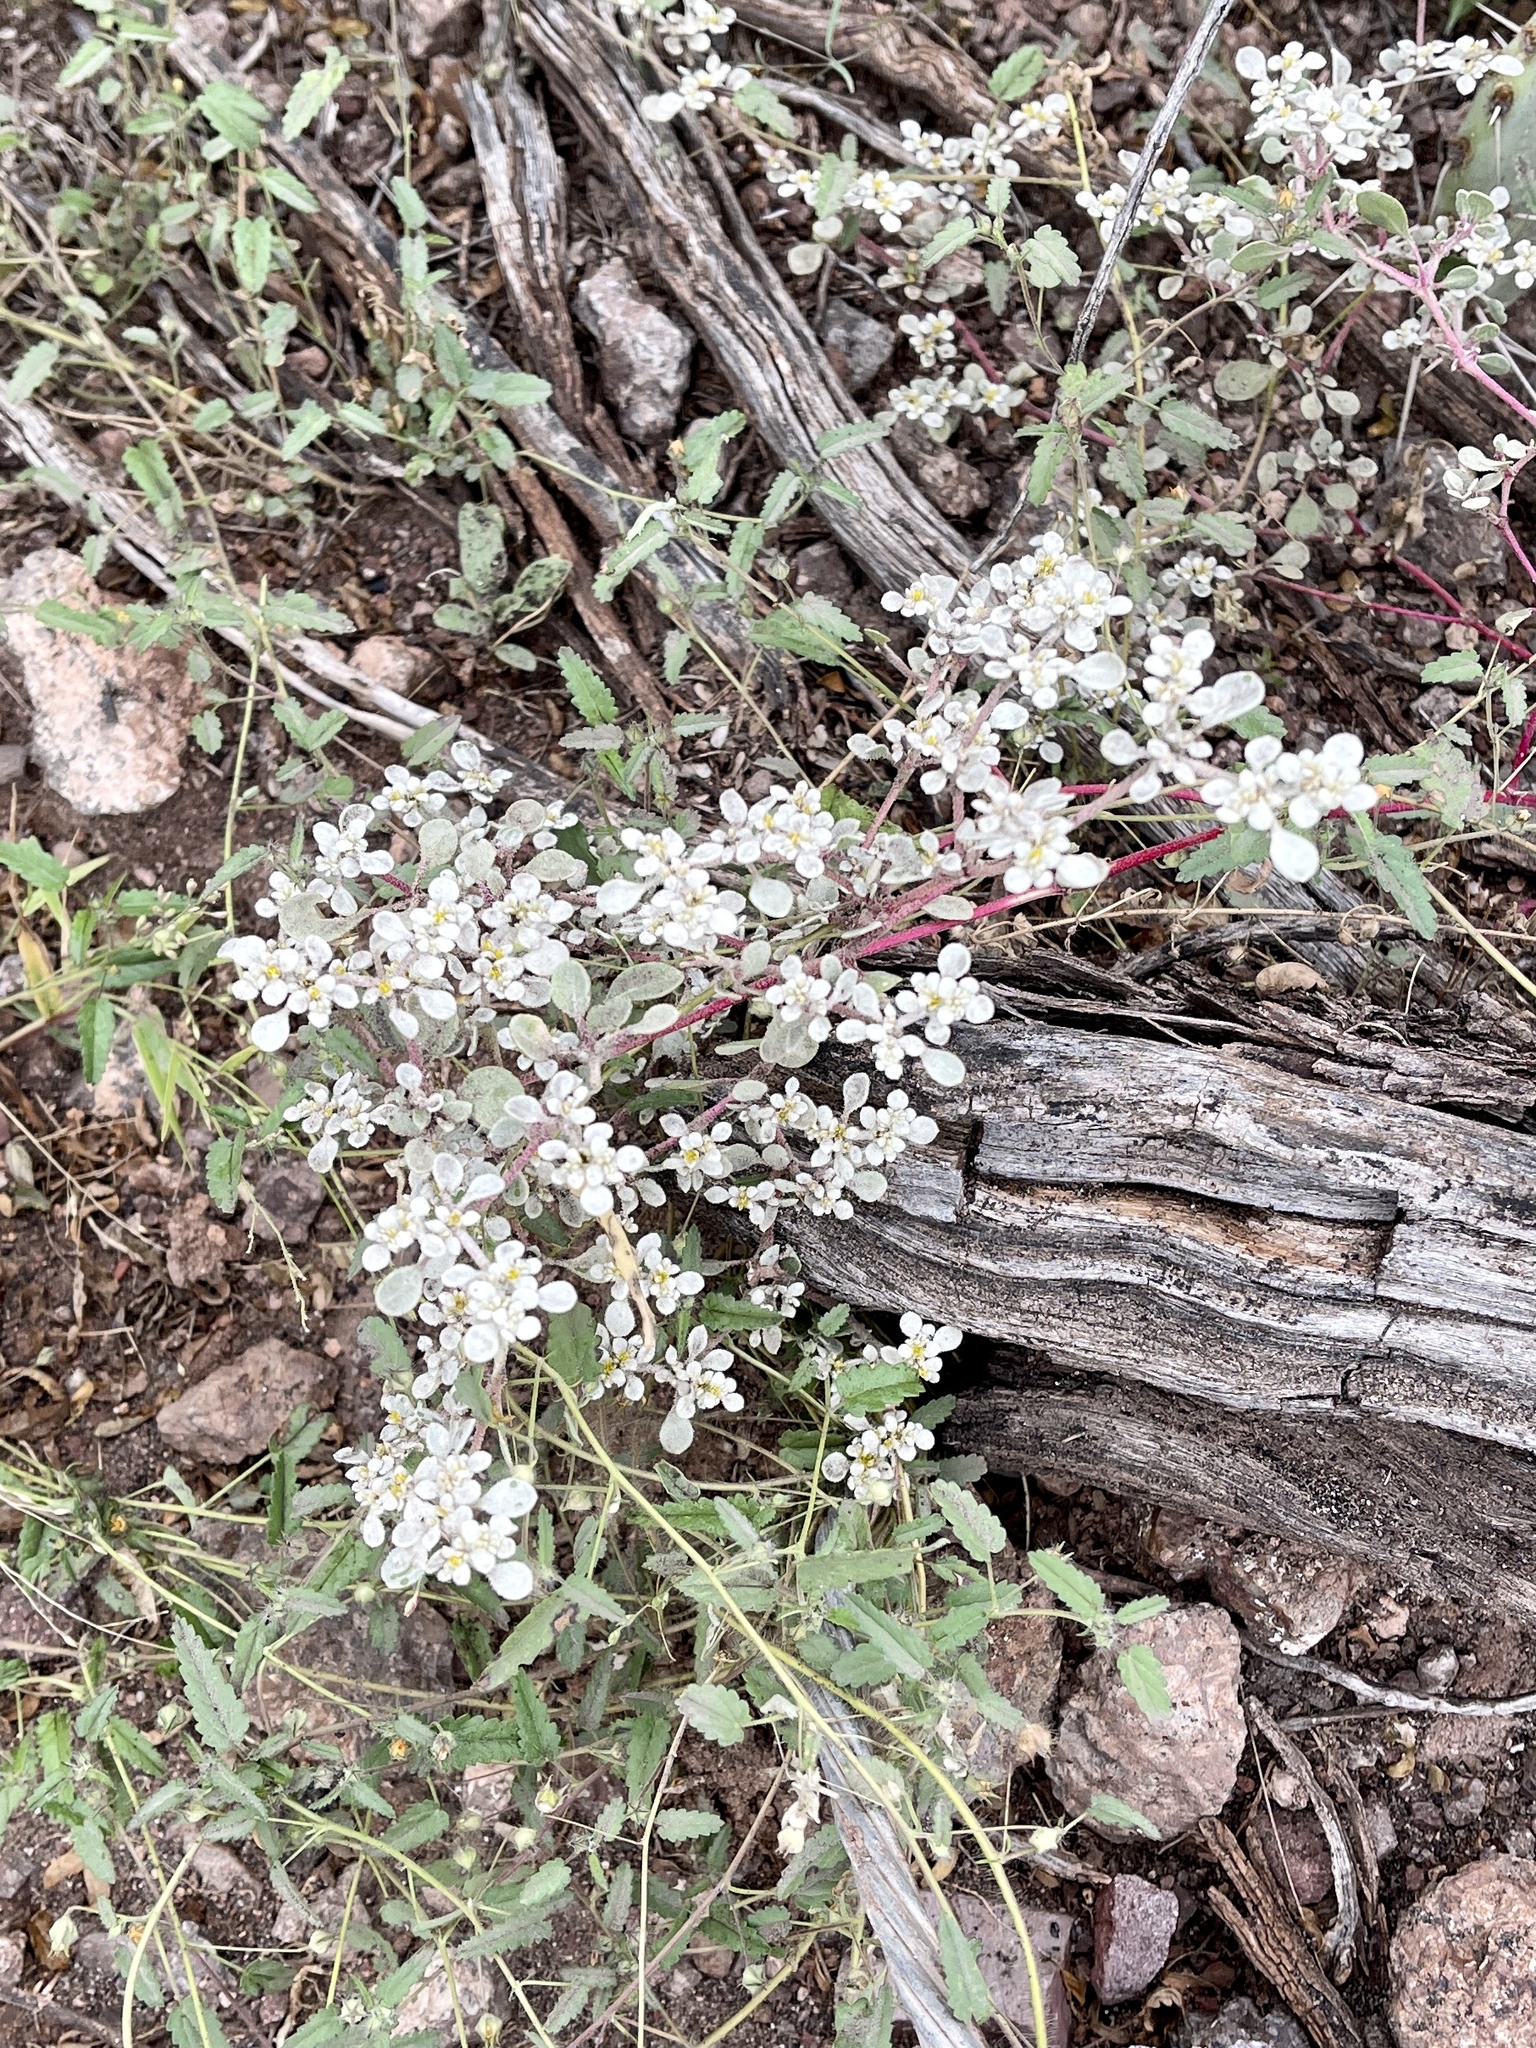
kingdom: Plantae
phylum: Tracheophyta
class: Magnoliopsida
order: Caryophyllales
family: Amaranthaceae
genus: Tidestromia
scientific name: Tidestromia lanuginosa
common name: Woolly tidestromia
